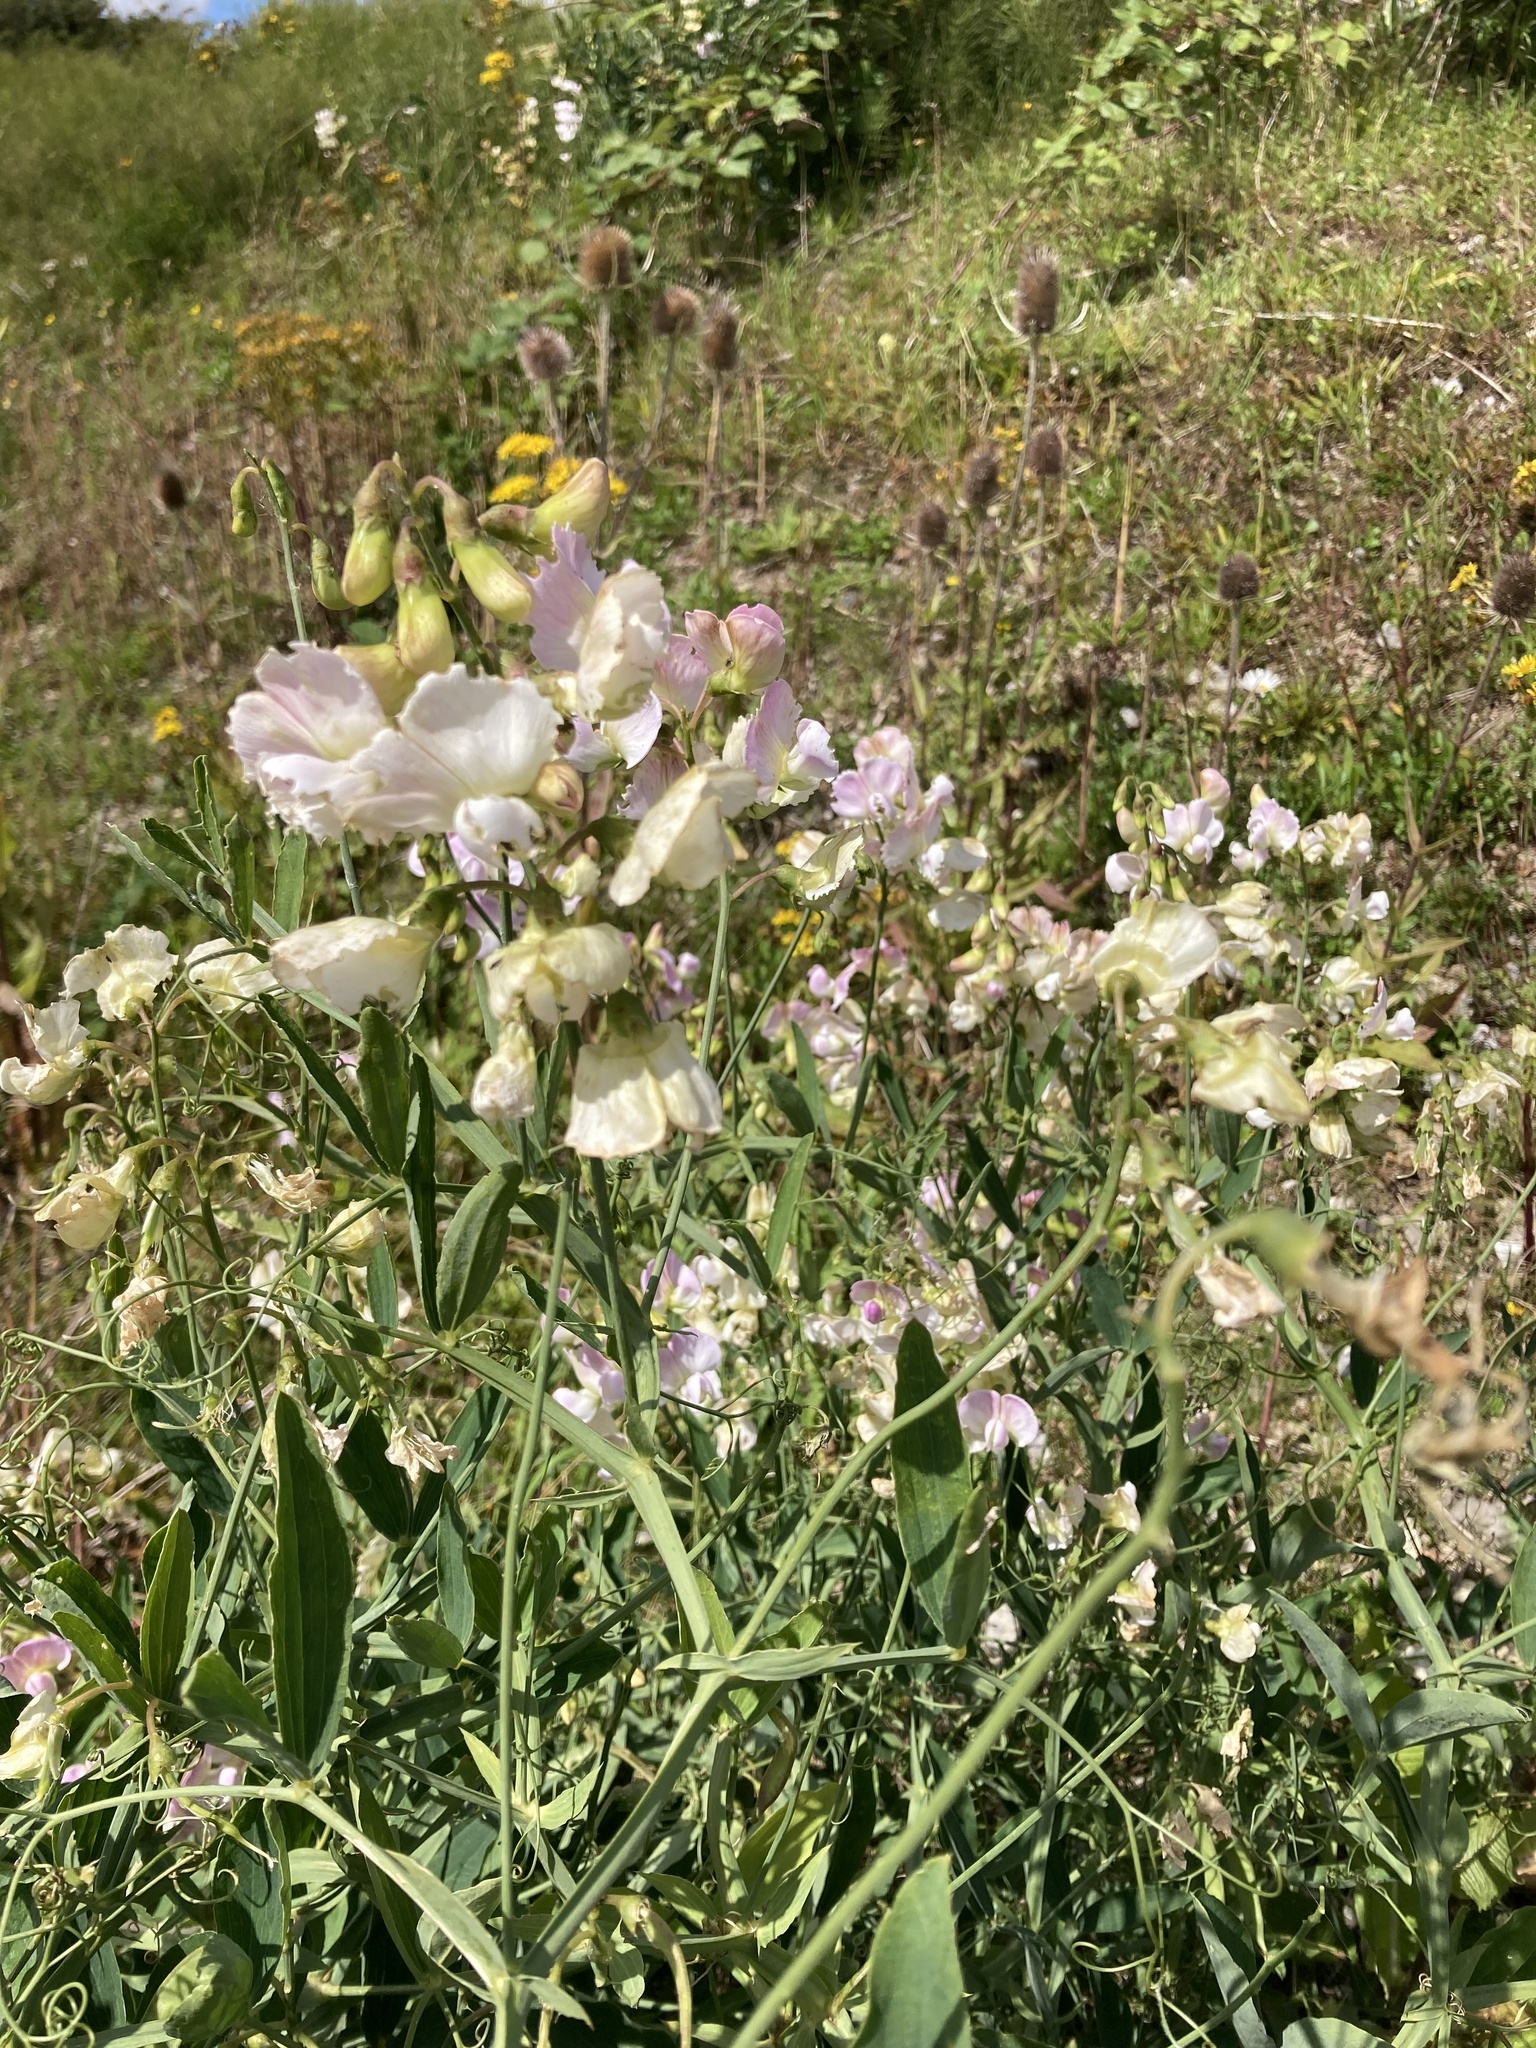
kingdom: Plantae
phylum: Tracheophyta
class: Magnoliopsida
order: Fabales
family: Fabaceae
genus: Lathyrus
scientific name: Lathyrus latifolius
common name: Perennial pea
